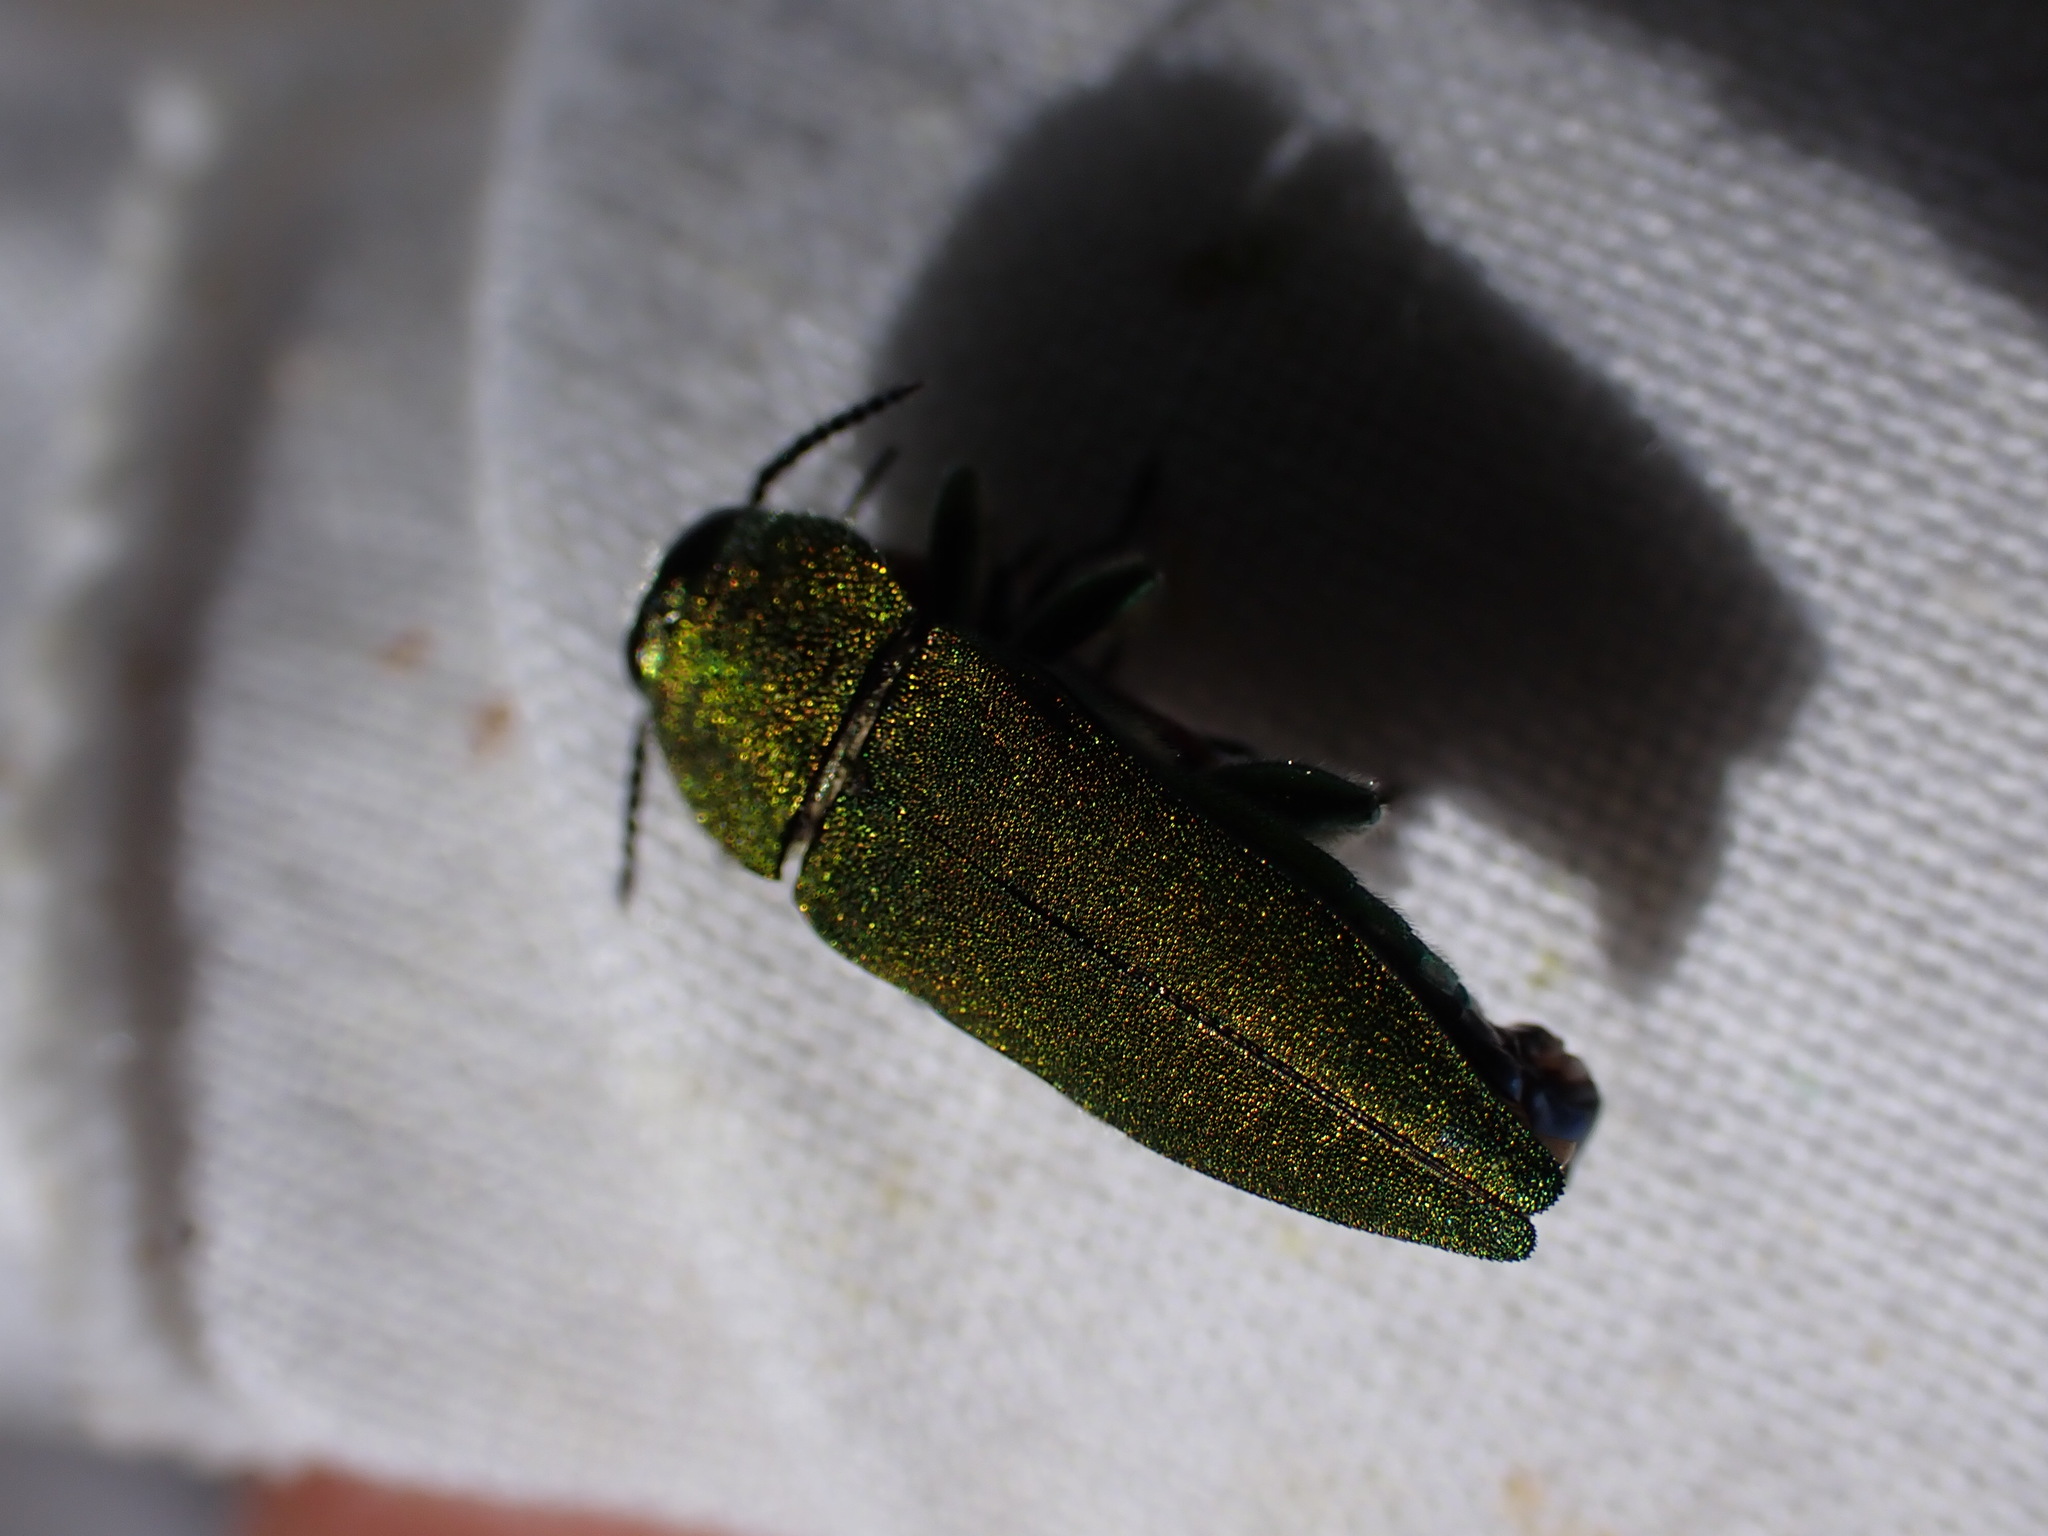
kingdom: Animalia
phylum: Arthropoda
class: Insecta
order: Coleoptera
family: Buprestidae
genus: Anthaxia
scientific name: Anthaxia hungarica
